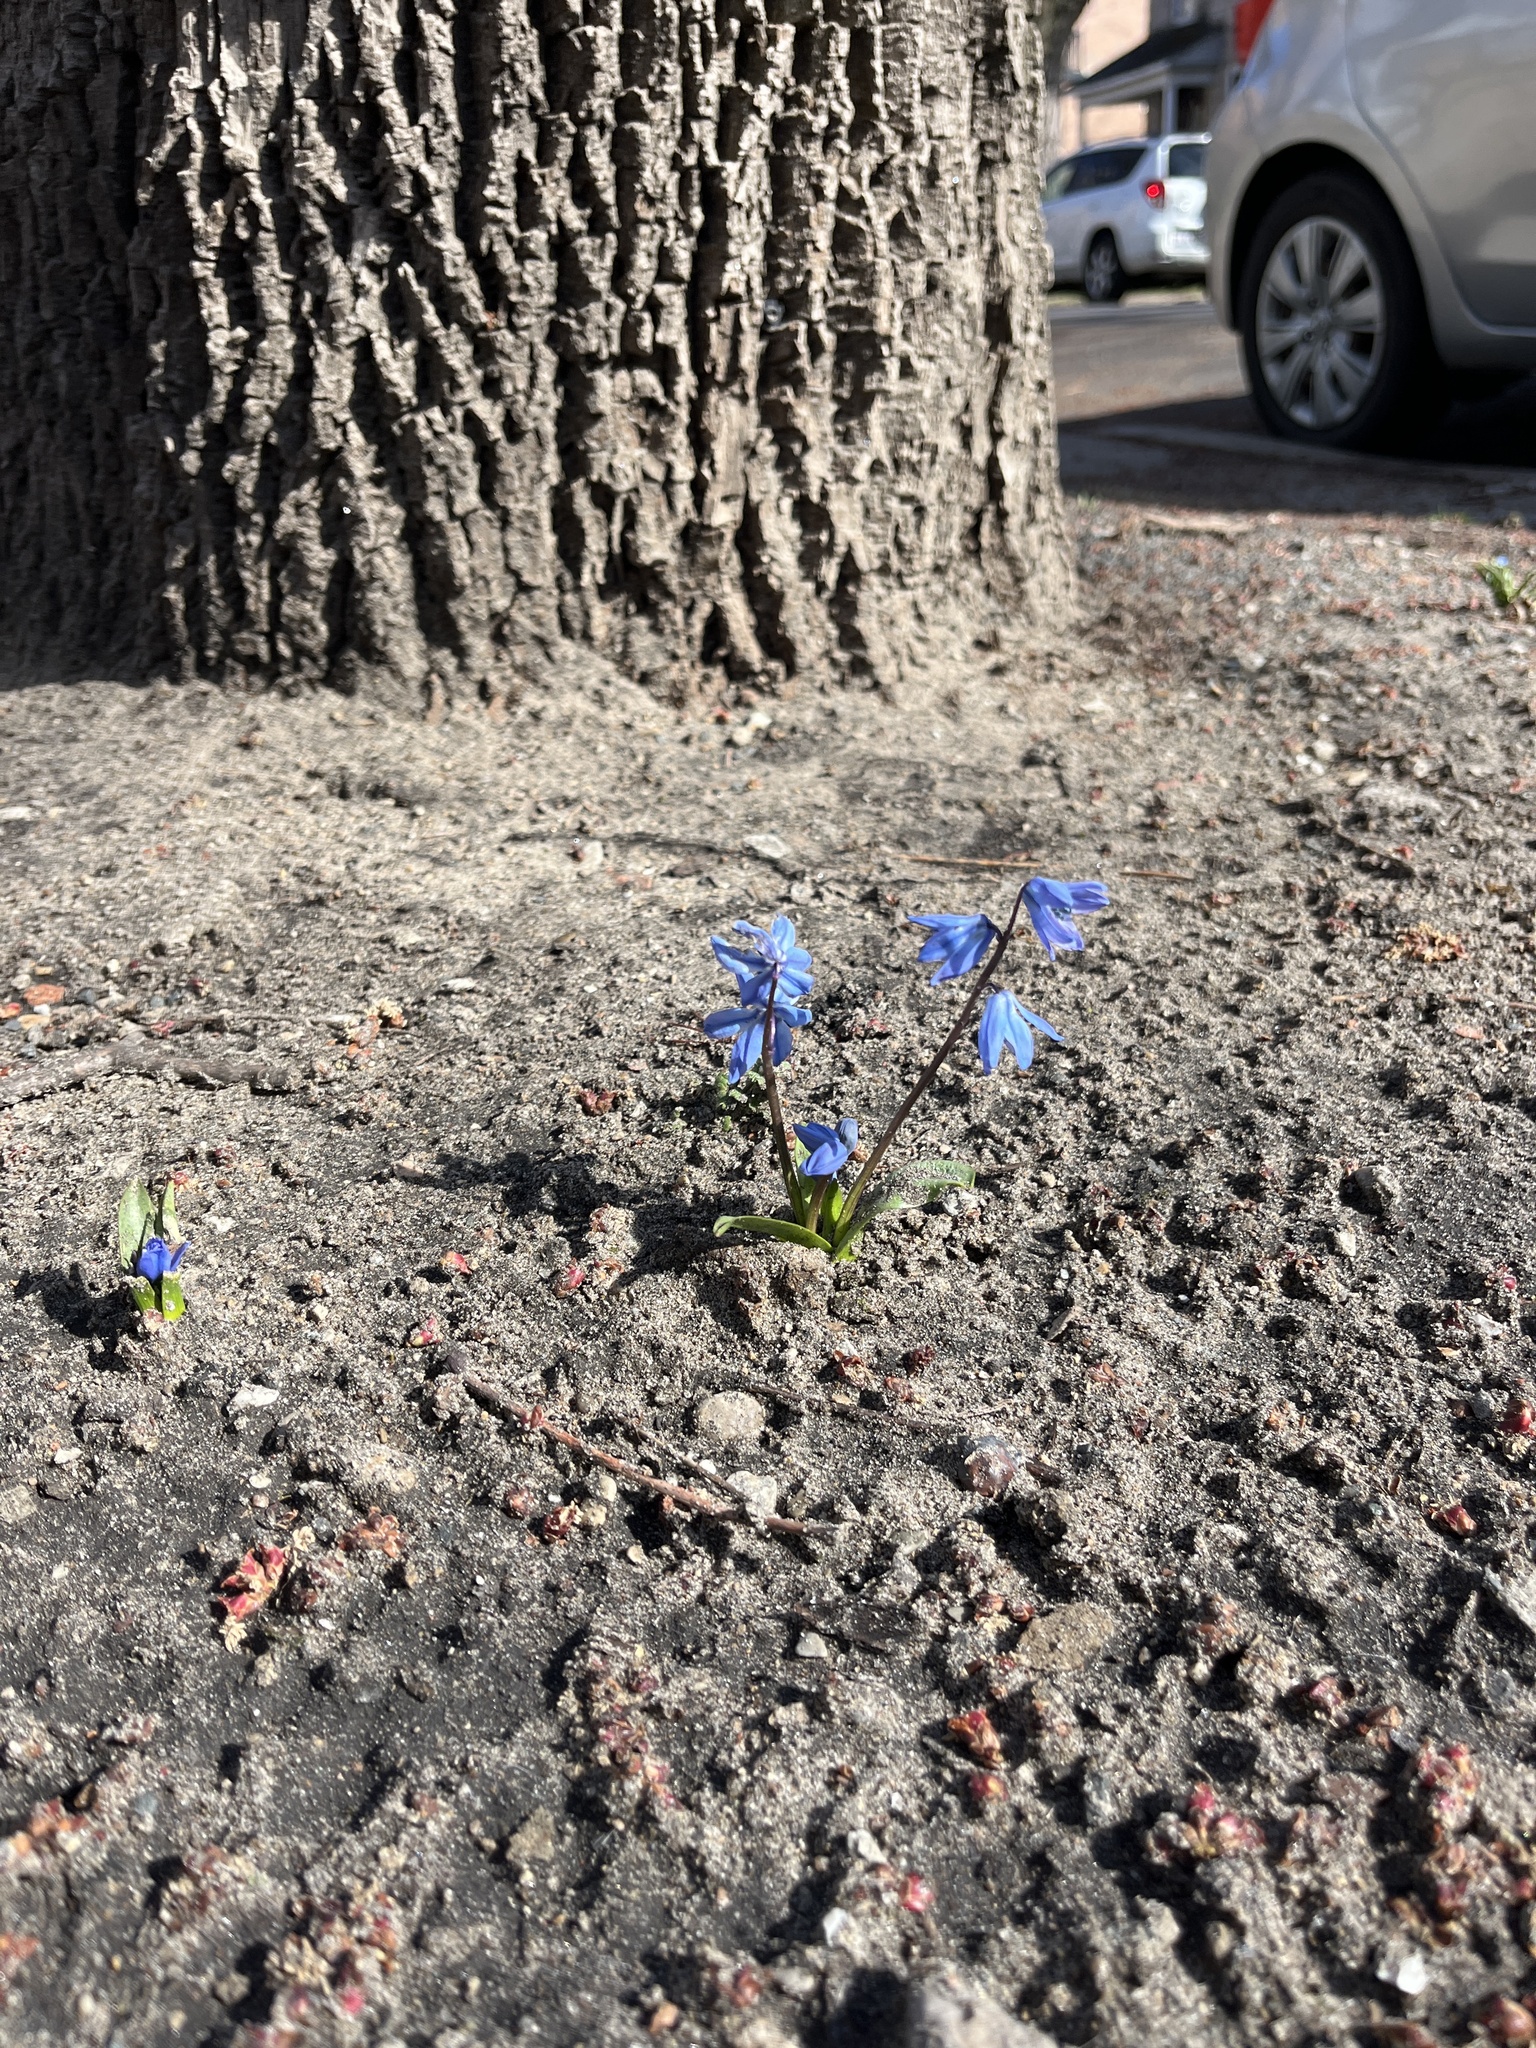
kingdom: Plantae
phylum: Tracheophyta
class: Liliopsida
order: Asparagales
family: Asparagaceae
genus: Scilla
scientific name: Scilla siberica
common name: Siberian squill
